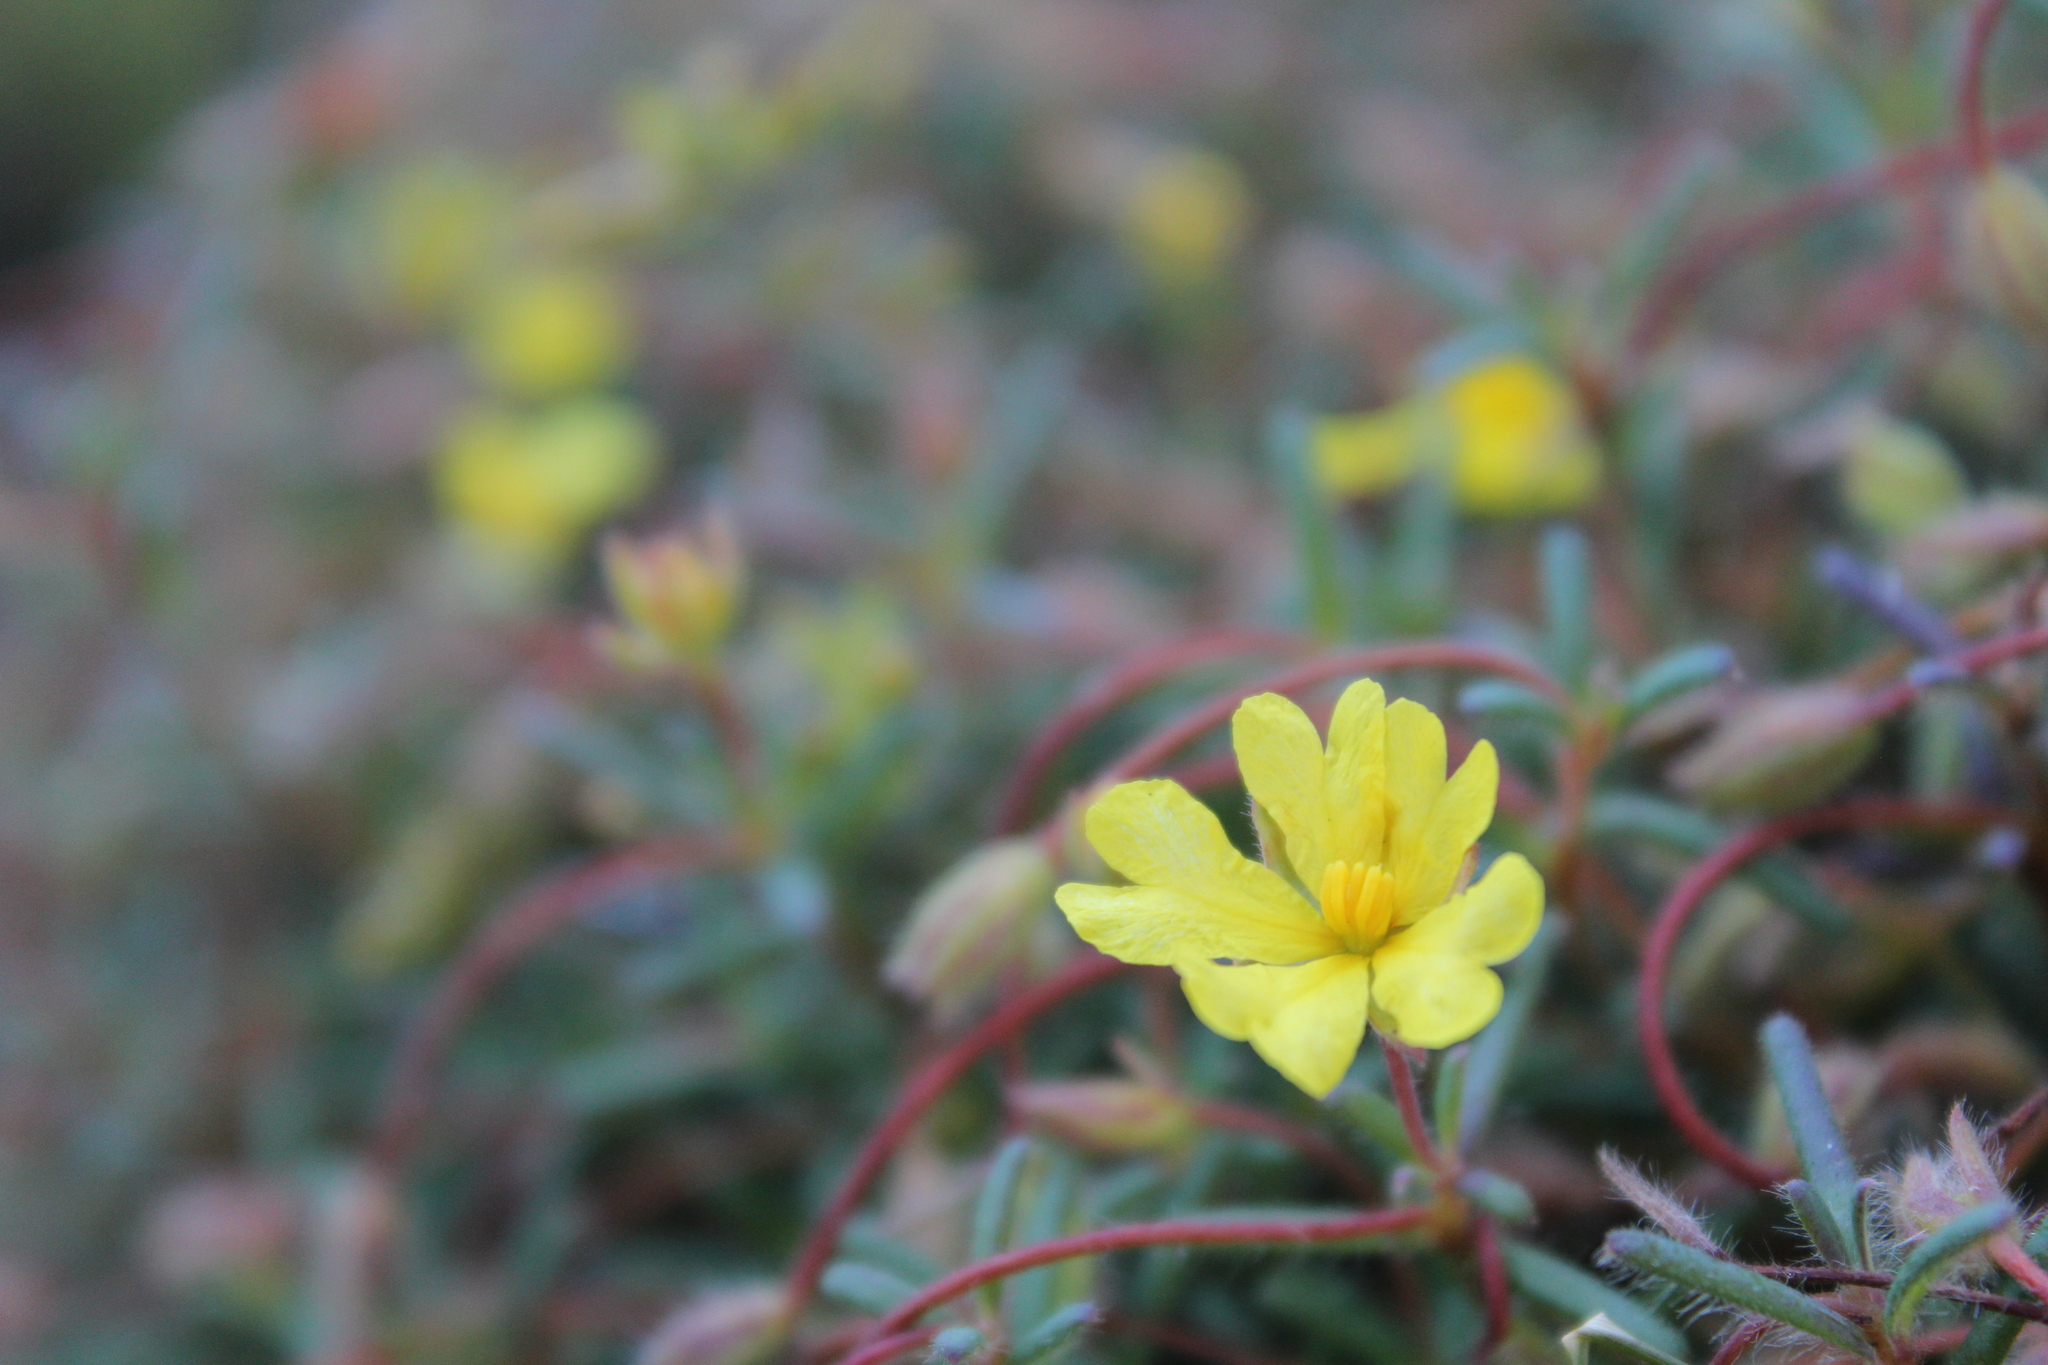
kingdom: Plantae
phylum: Tracheophyta
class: Magnoliopsida
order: Dilleniales
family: Dilleniaceae
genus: Hibbertia
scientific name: Hibbertia diamesogenos
